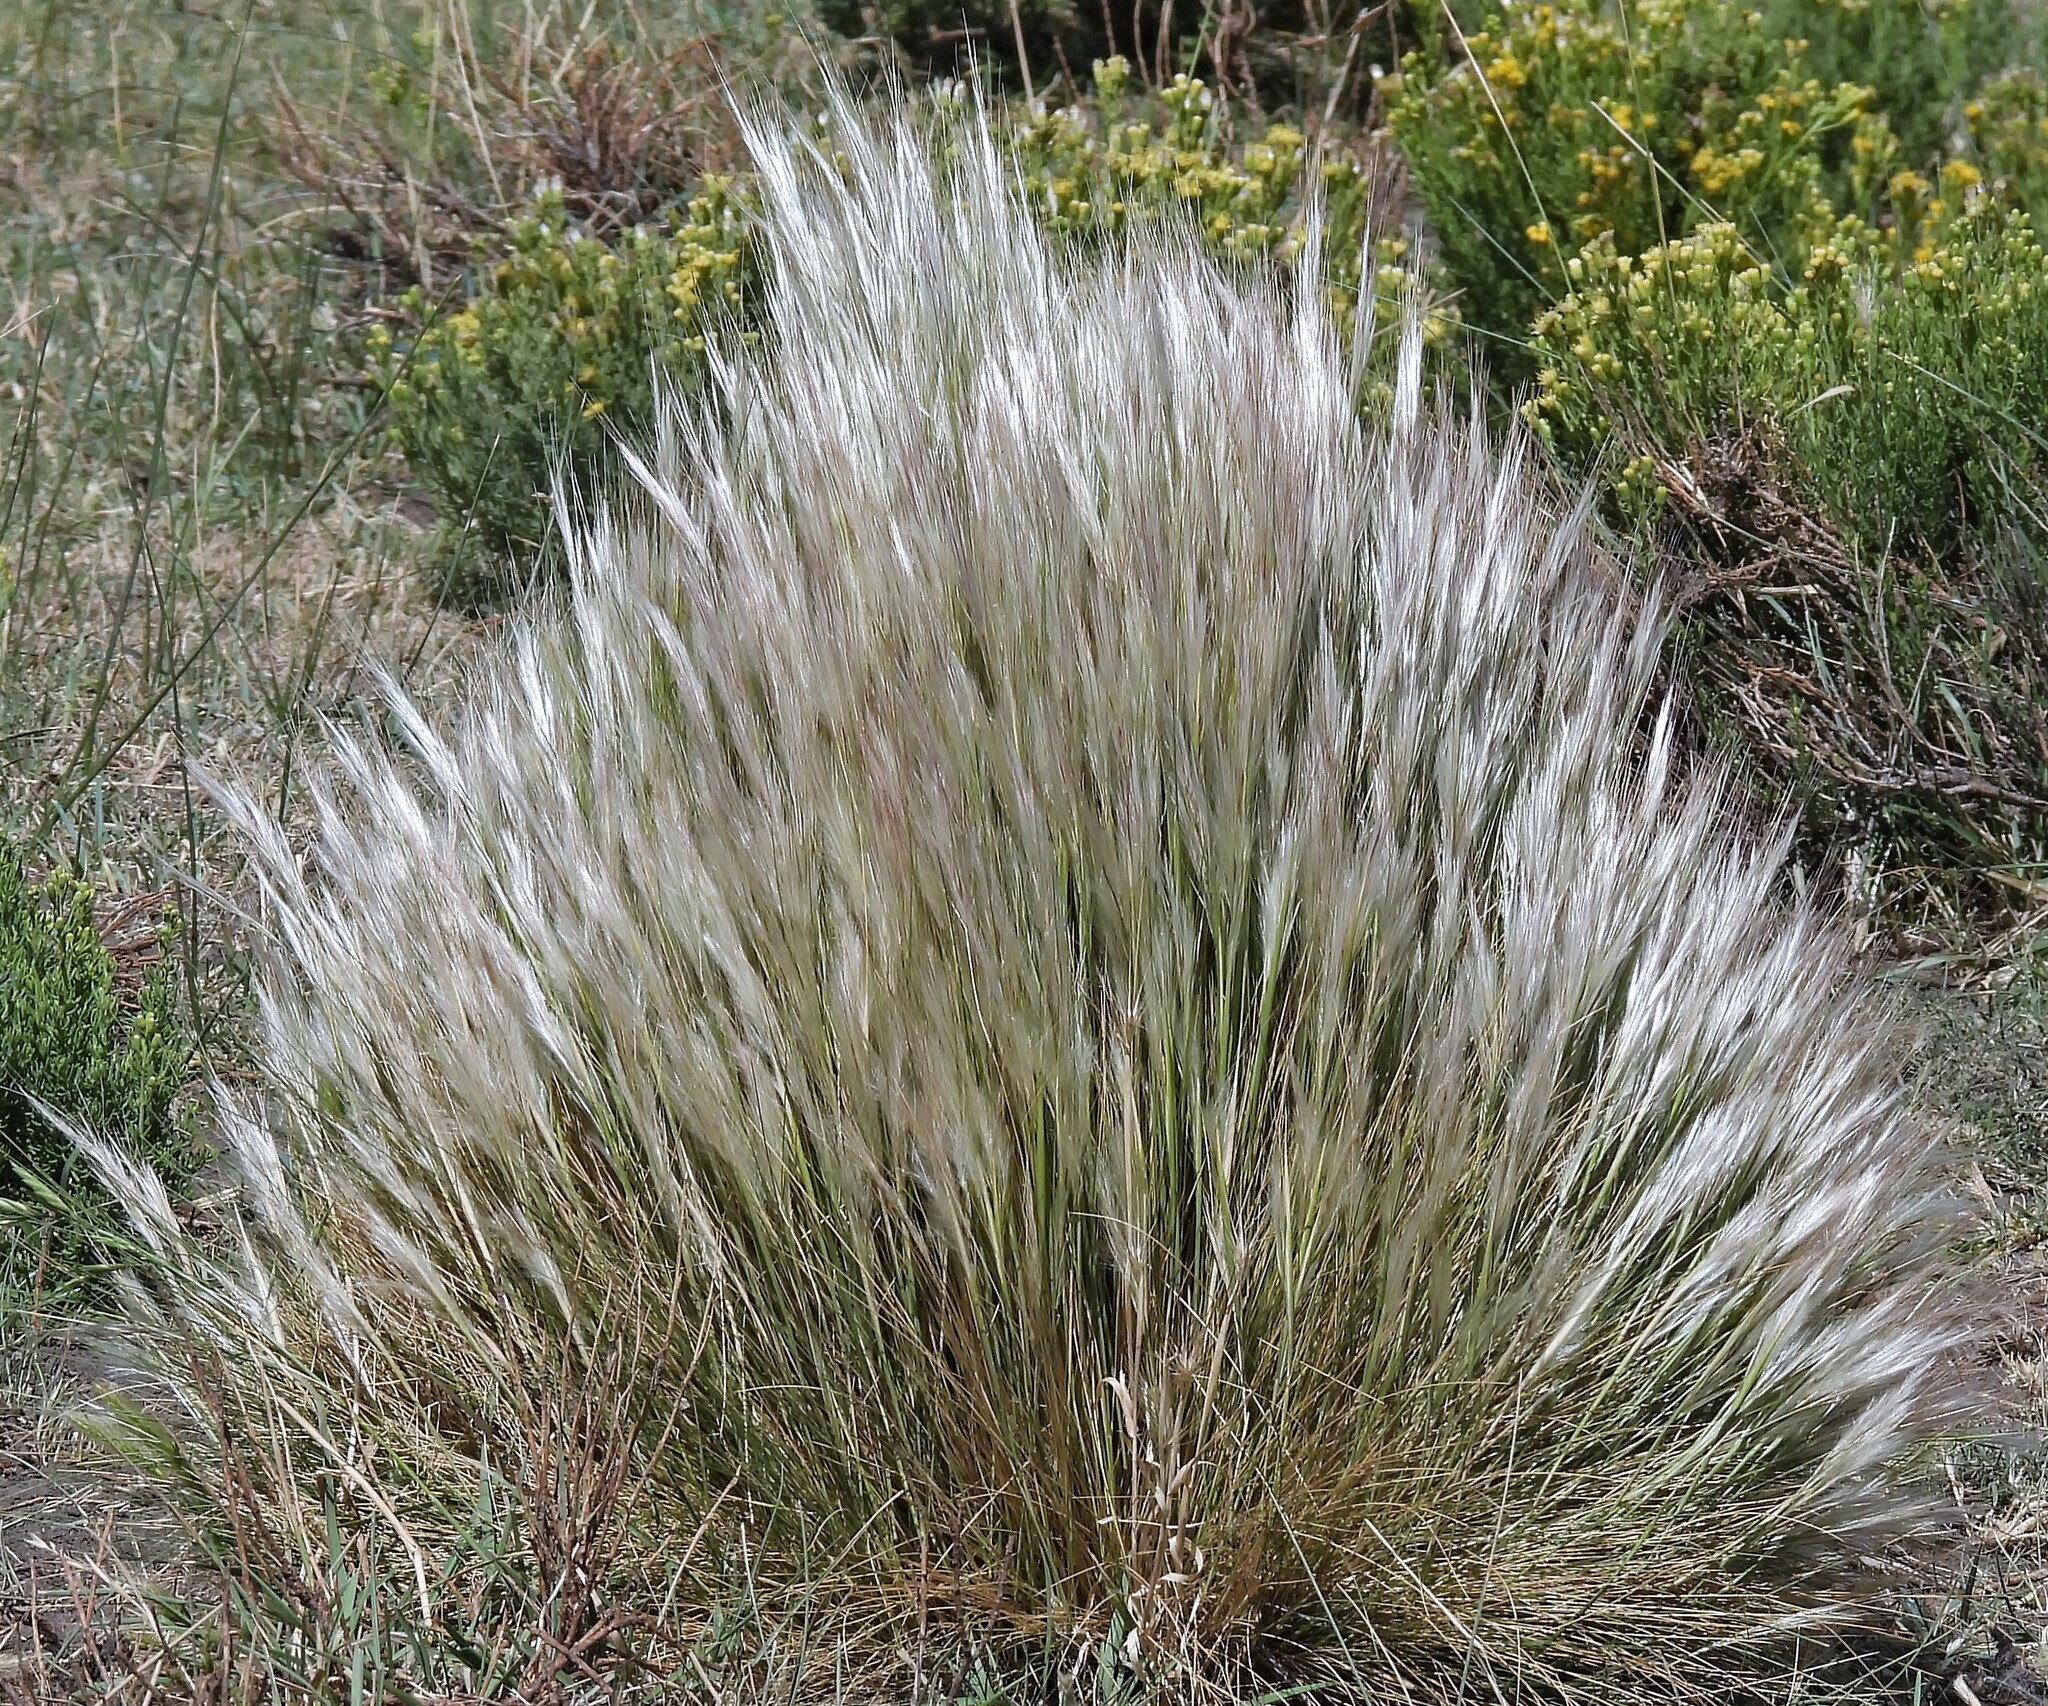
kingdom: Plantae
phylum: Tracheophyta
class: Liliopsida
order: Poales
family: Poaceae
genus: Pappostipa
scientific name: Pappostipa humilis
